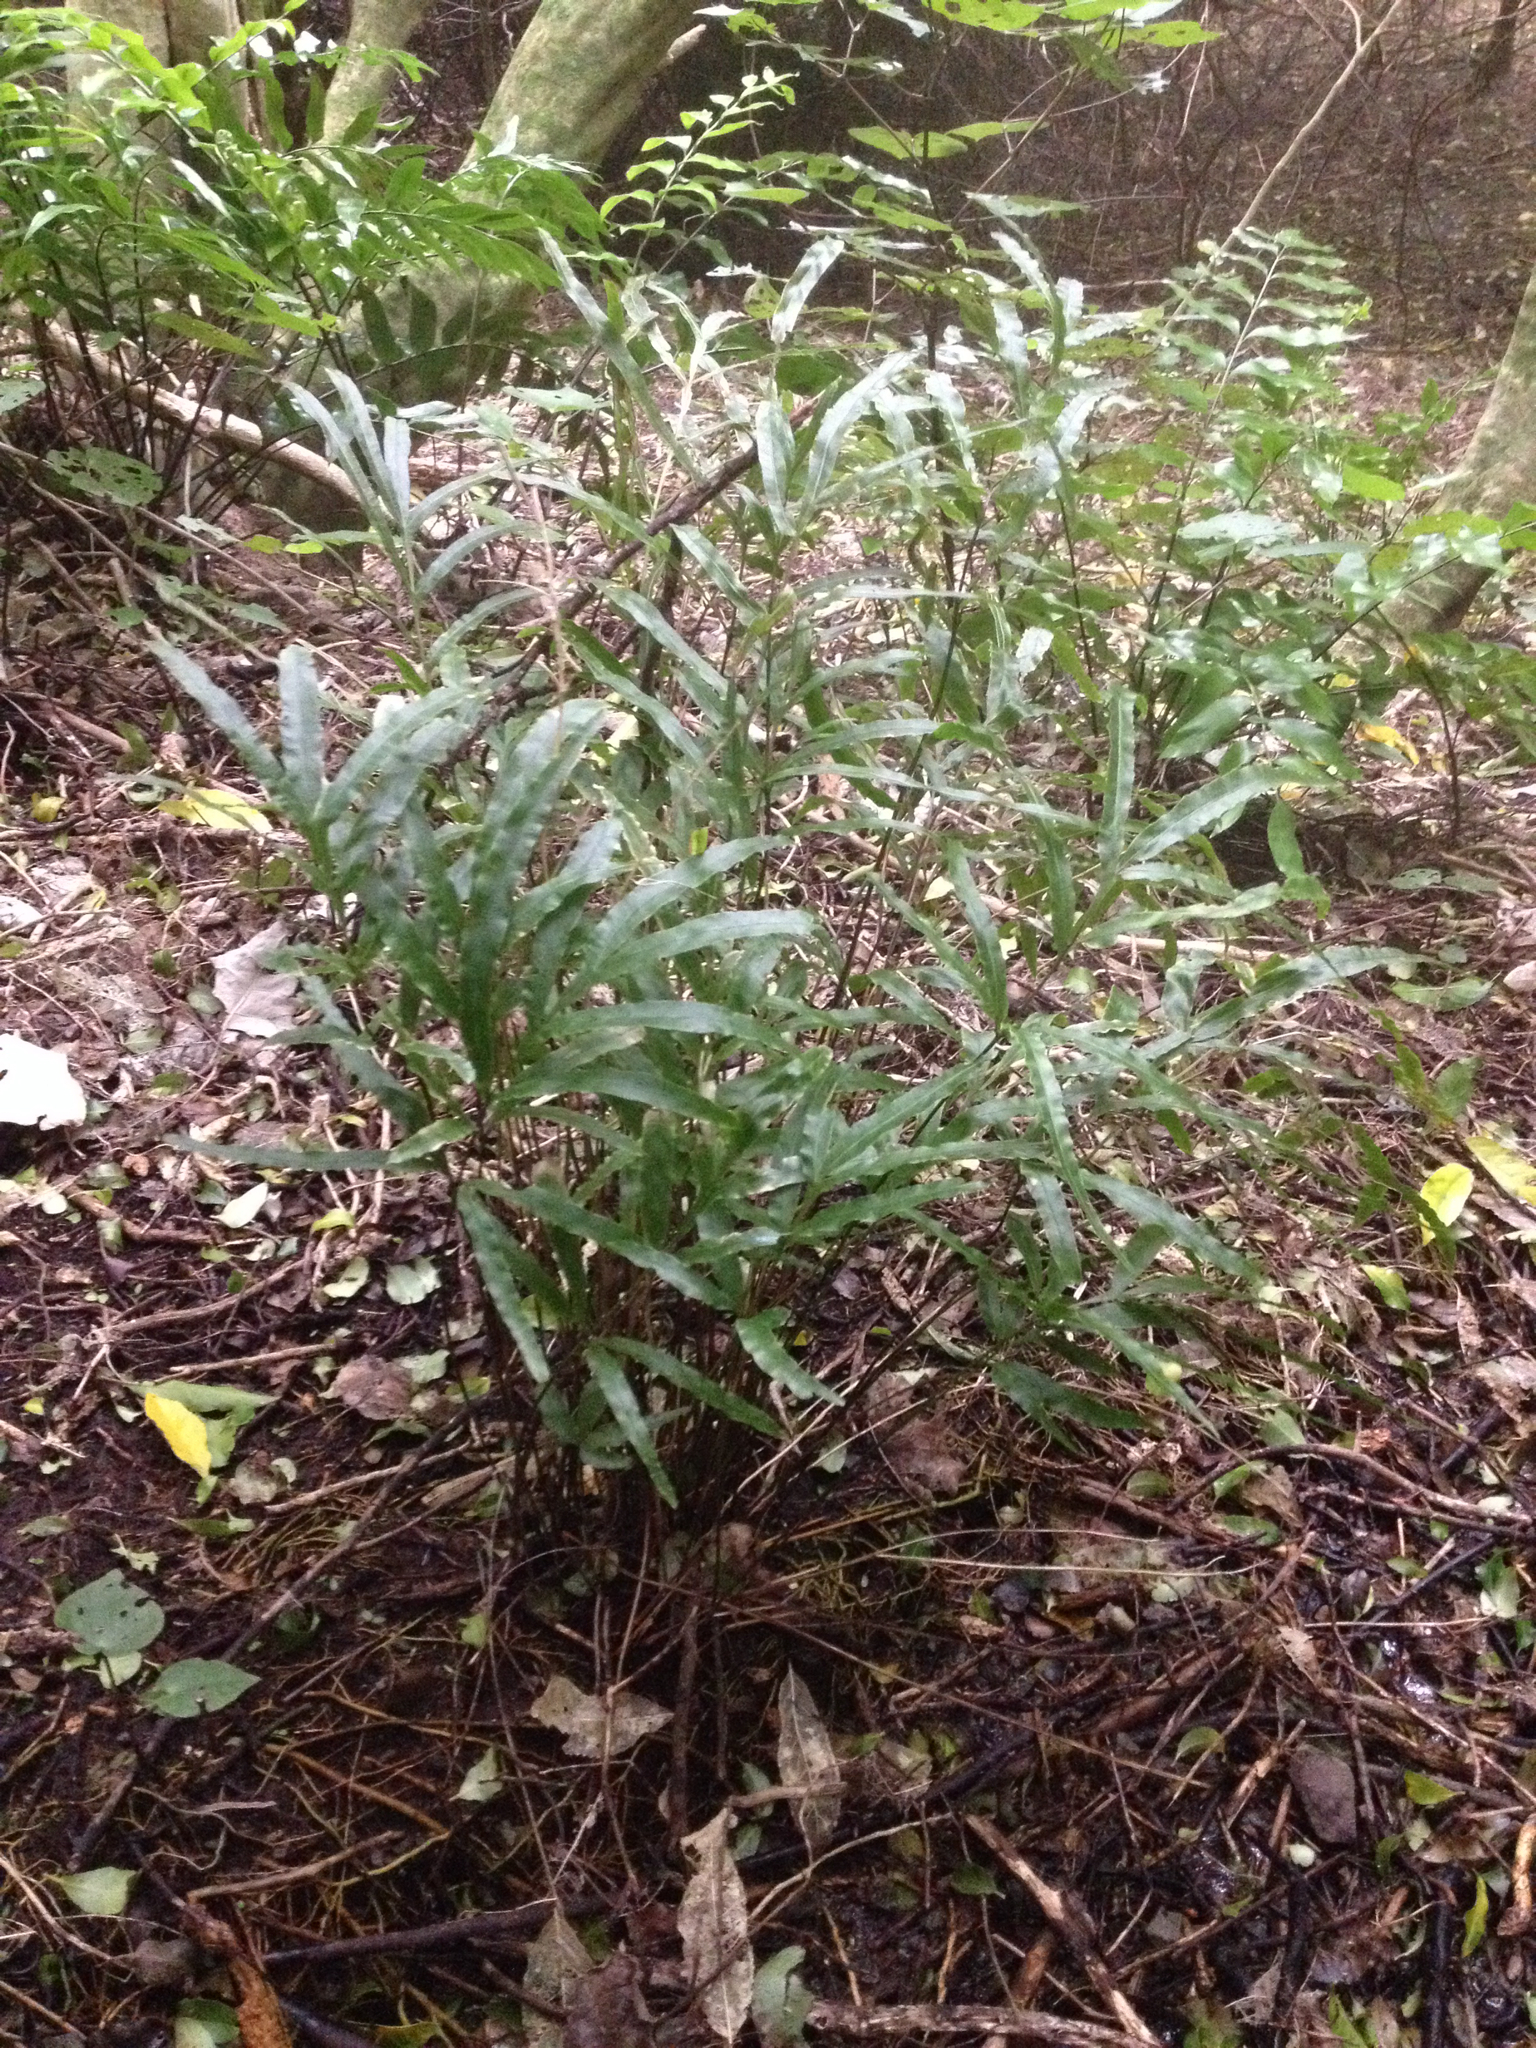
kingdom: Plantae
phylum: Tracheophyta
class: Polypodiopsida
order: Polypodiales
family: Pteridaceae
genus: Pteris
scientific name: Pteris cretica
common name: Ribbon fern
